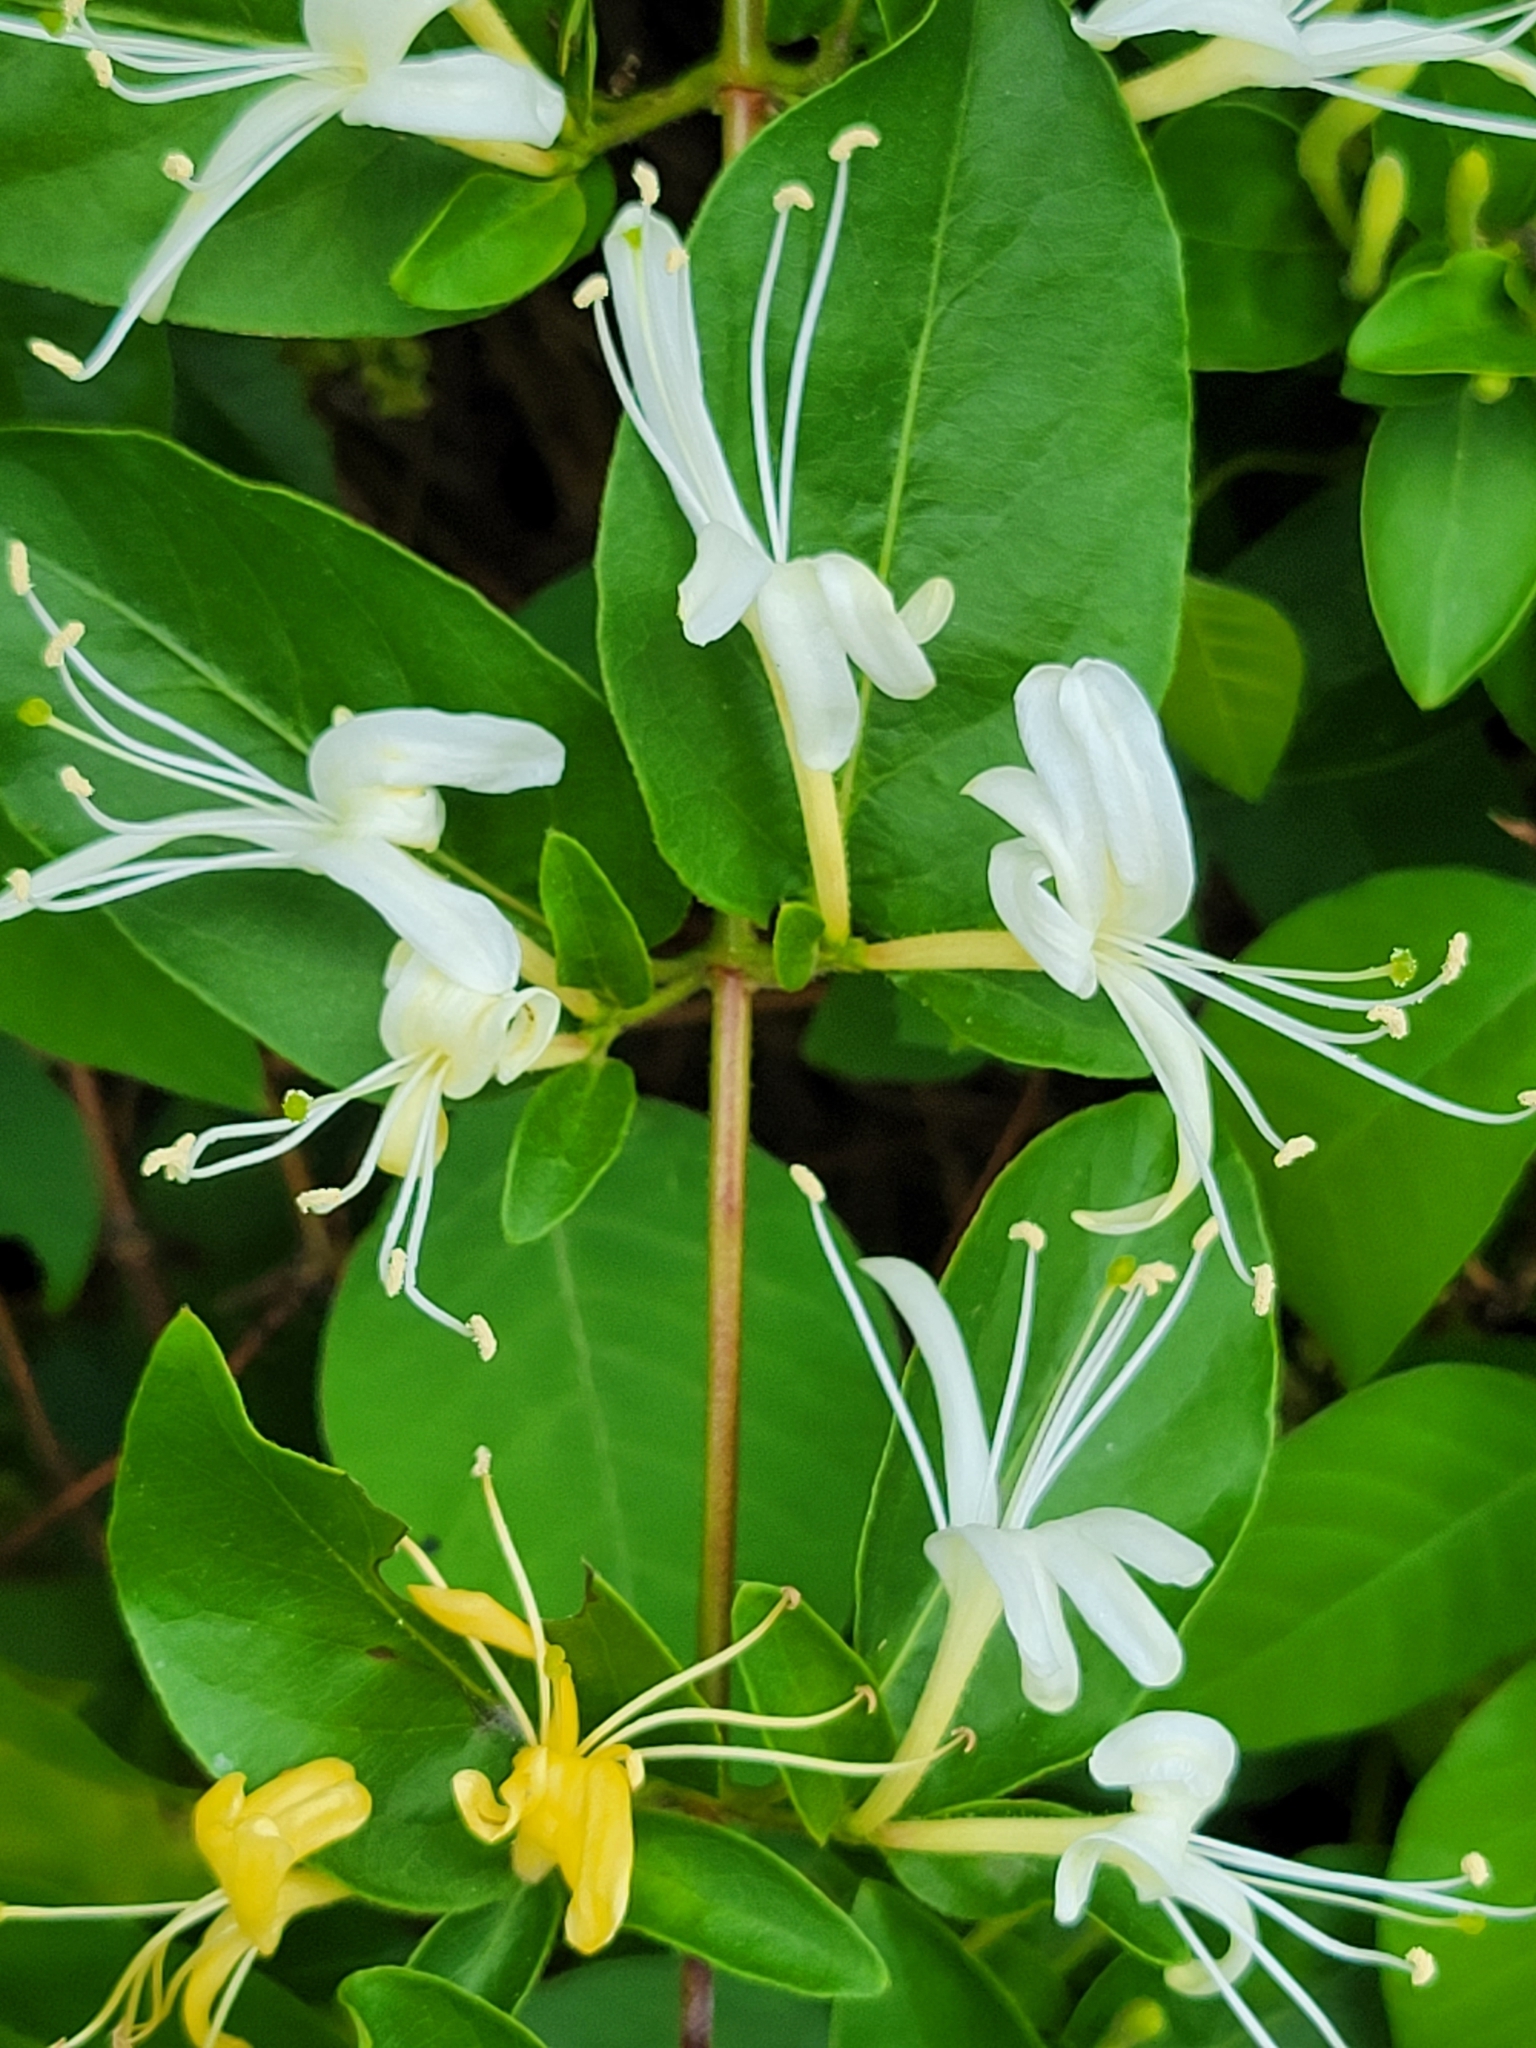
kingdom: Plantae
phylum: Tracheophyta
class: Magnoliopsida
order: Dipsacales
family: Caprifoliaceae
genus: Lonicera
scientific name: Lonicera japonica
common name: Japanese honeysuckle
